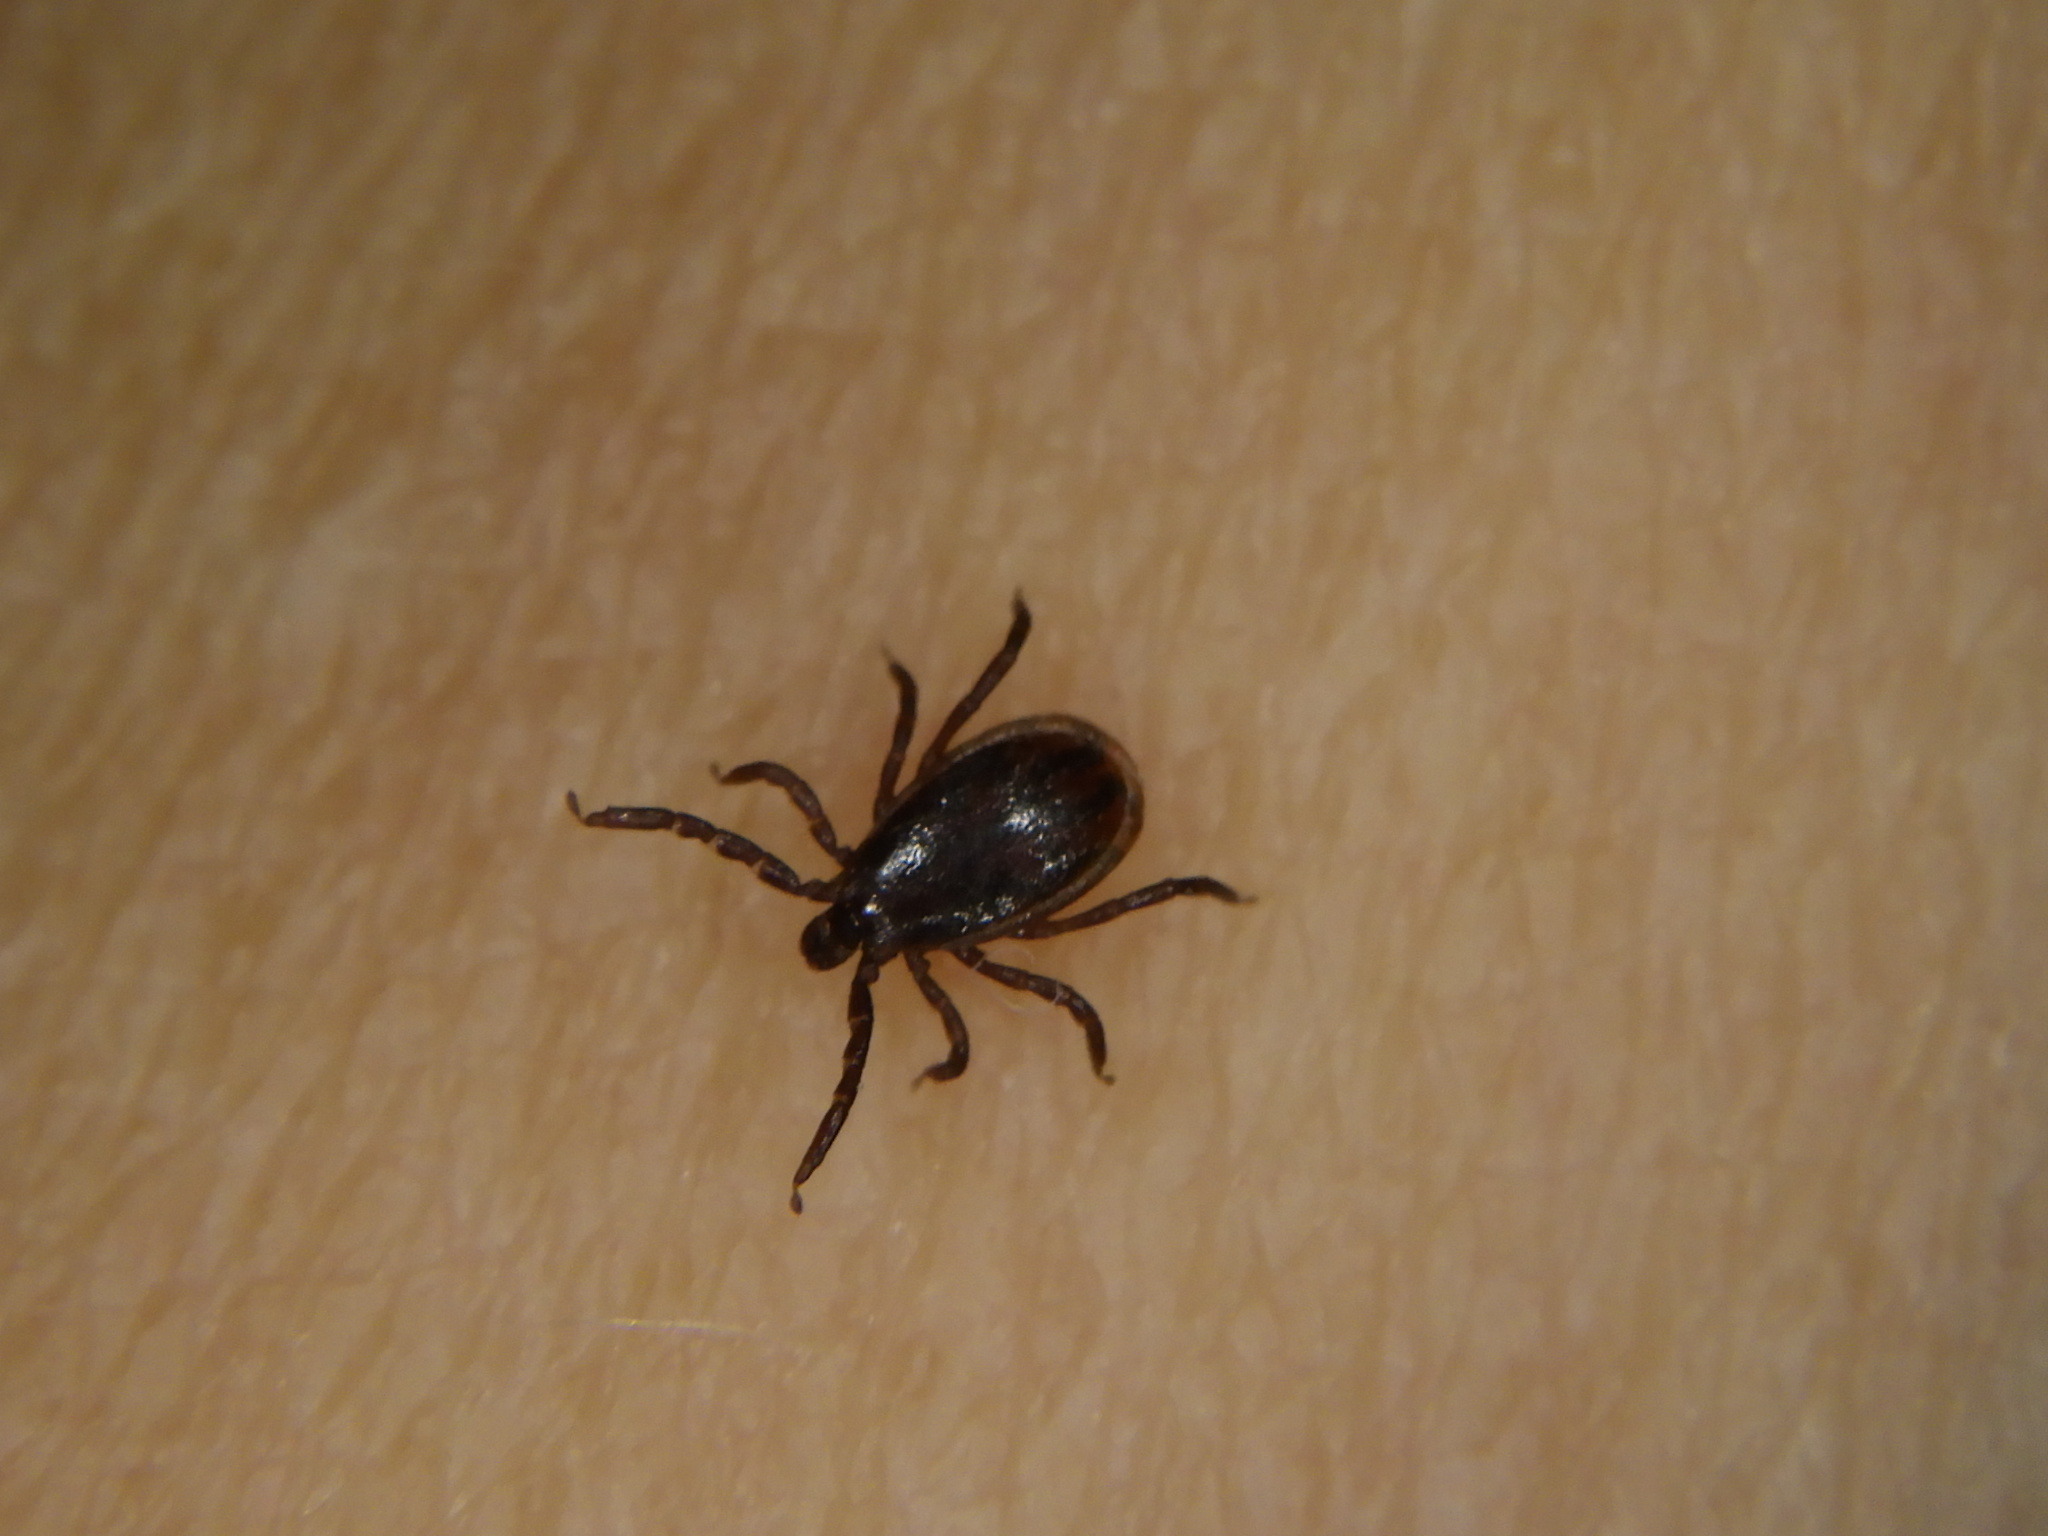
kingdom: Animalia
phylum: Arthropoda
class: Arachnida
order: Ixodida
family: Ixodidae
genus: Ixodes
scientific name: Ixodes scapularis
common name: Black legged tick
